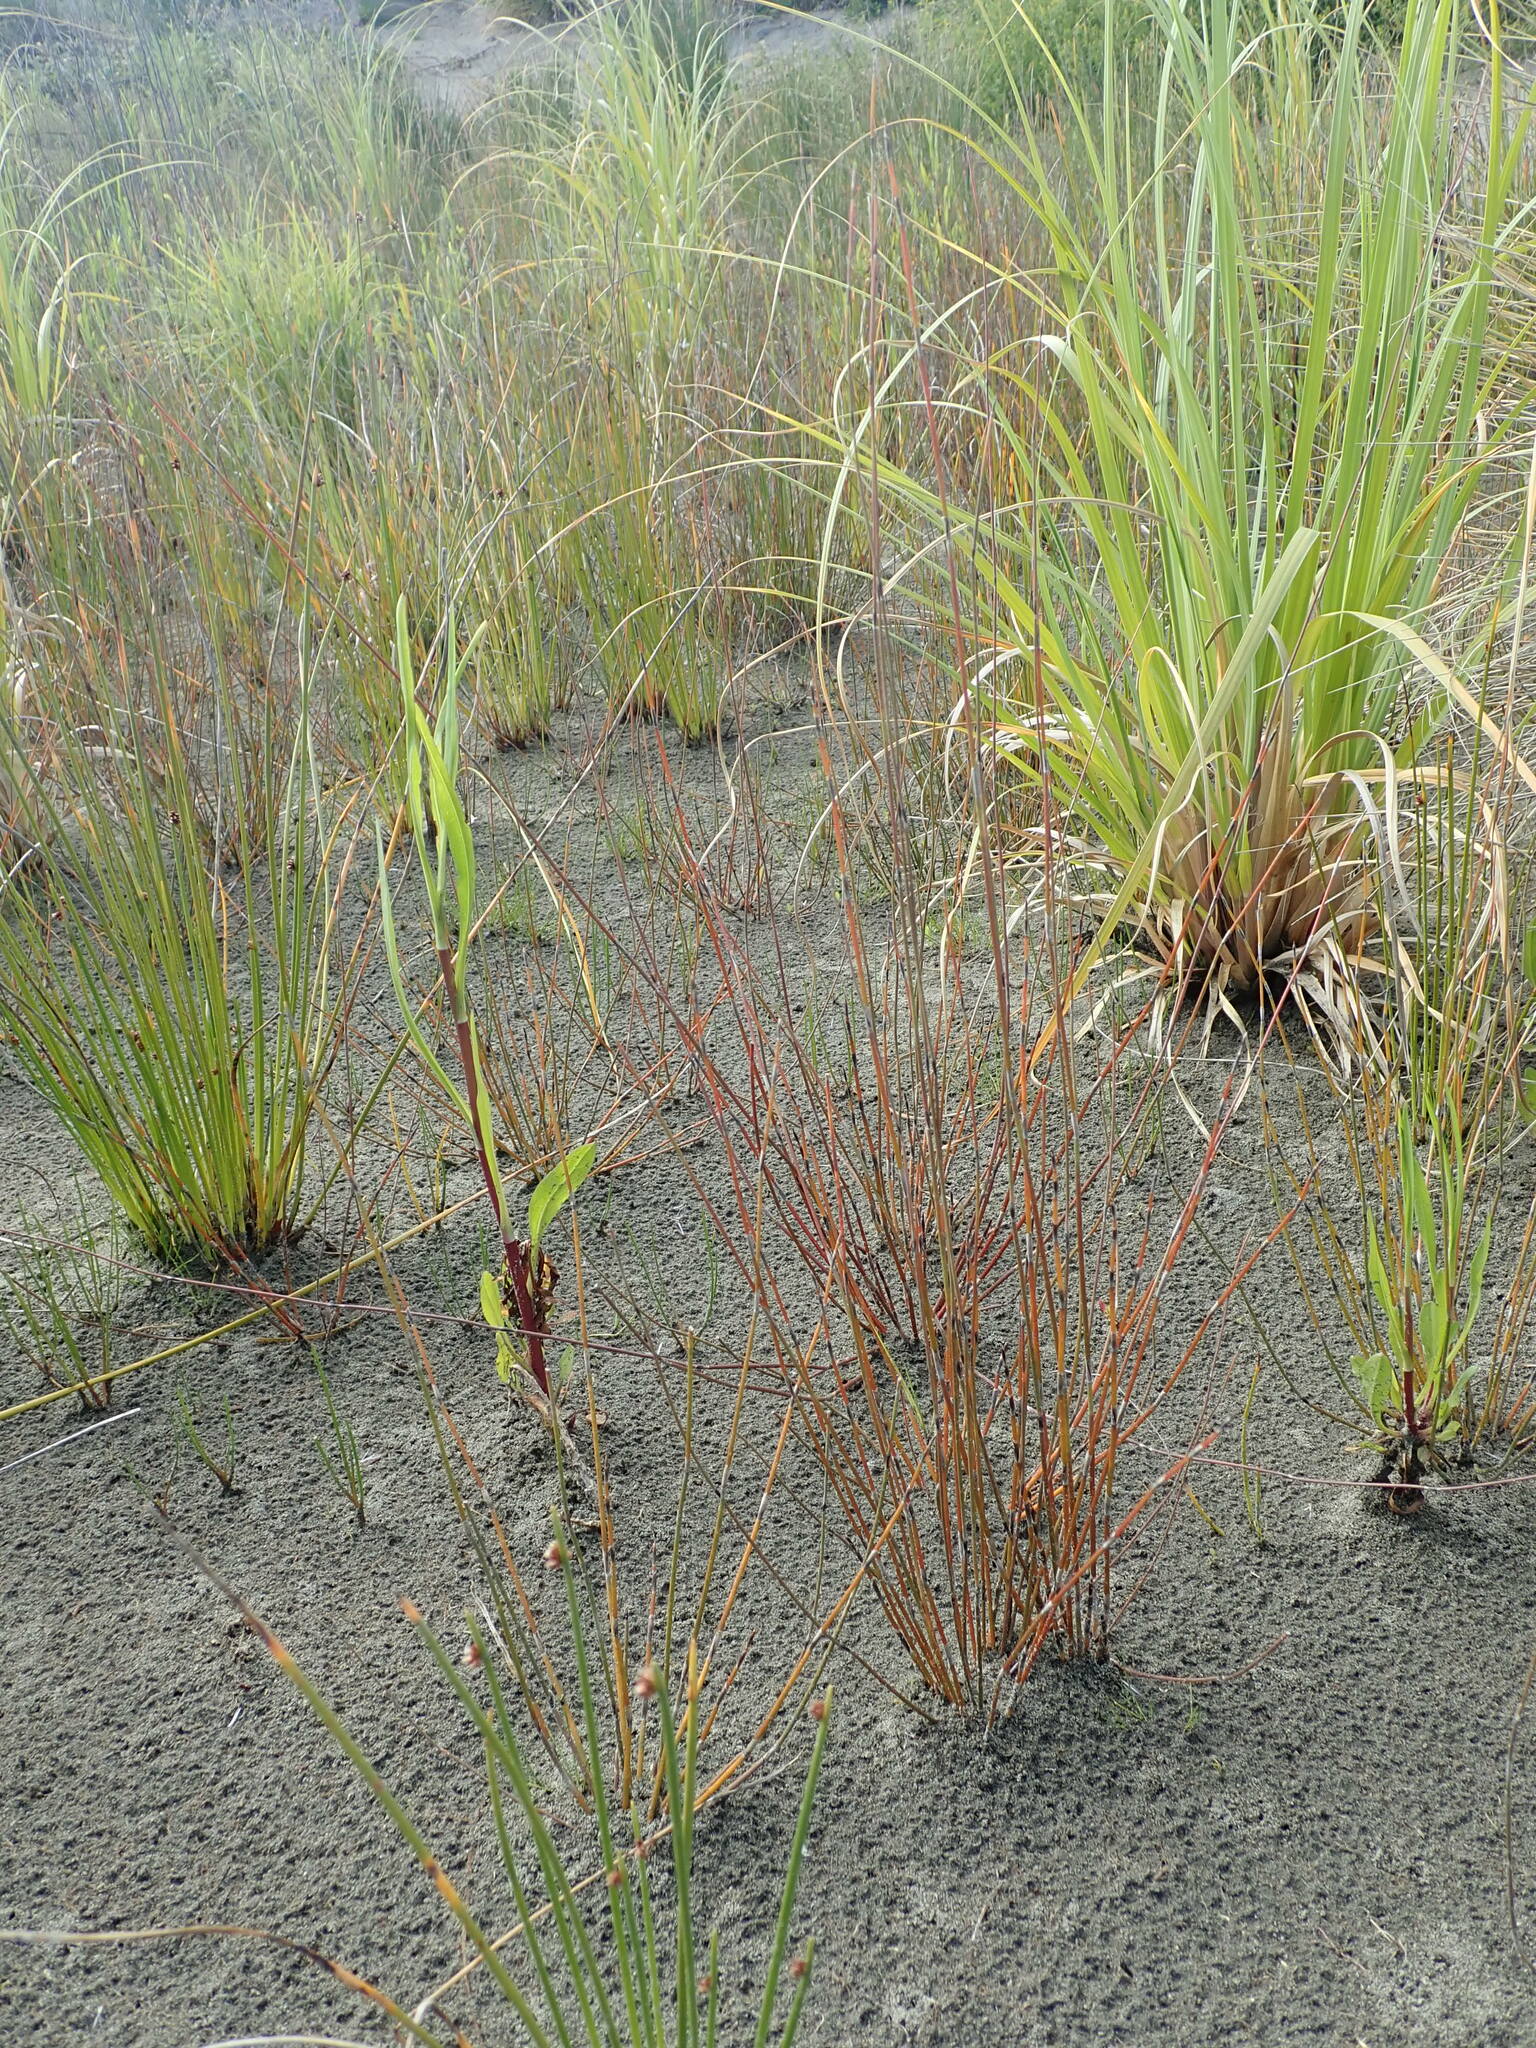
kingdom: Plantae
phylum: Tracheophyta
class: Liliopsida
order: Poales
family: Restionaceae
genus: Apodasmia
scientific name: Apodasmia similis
